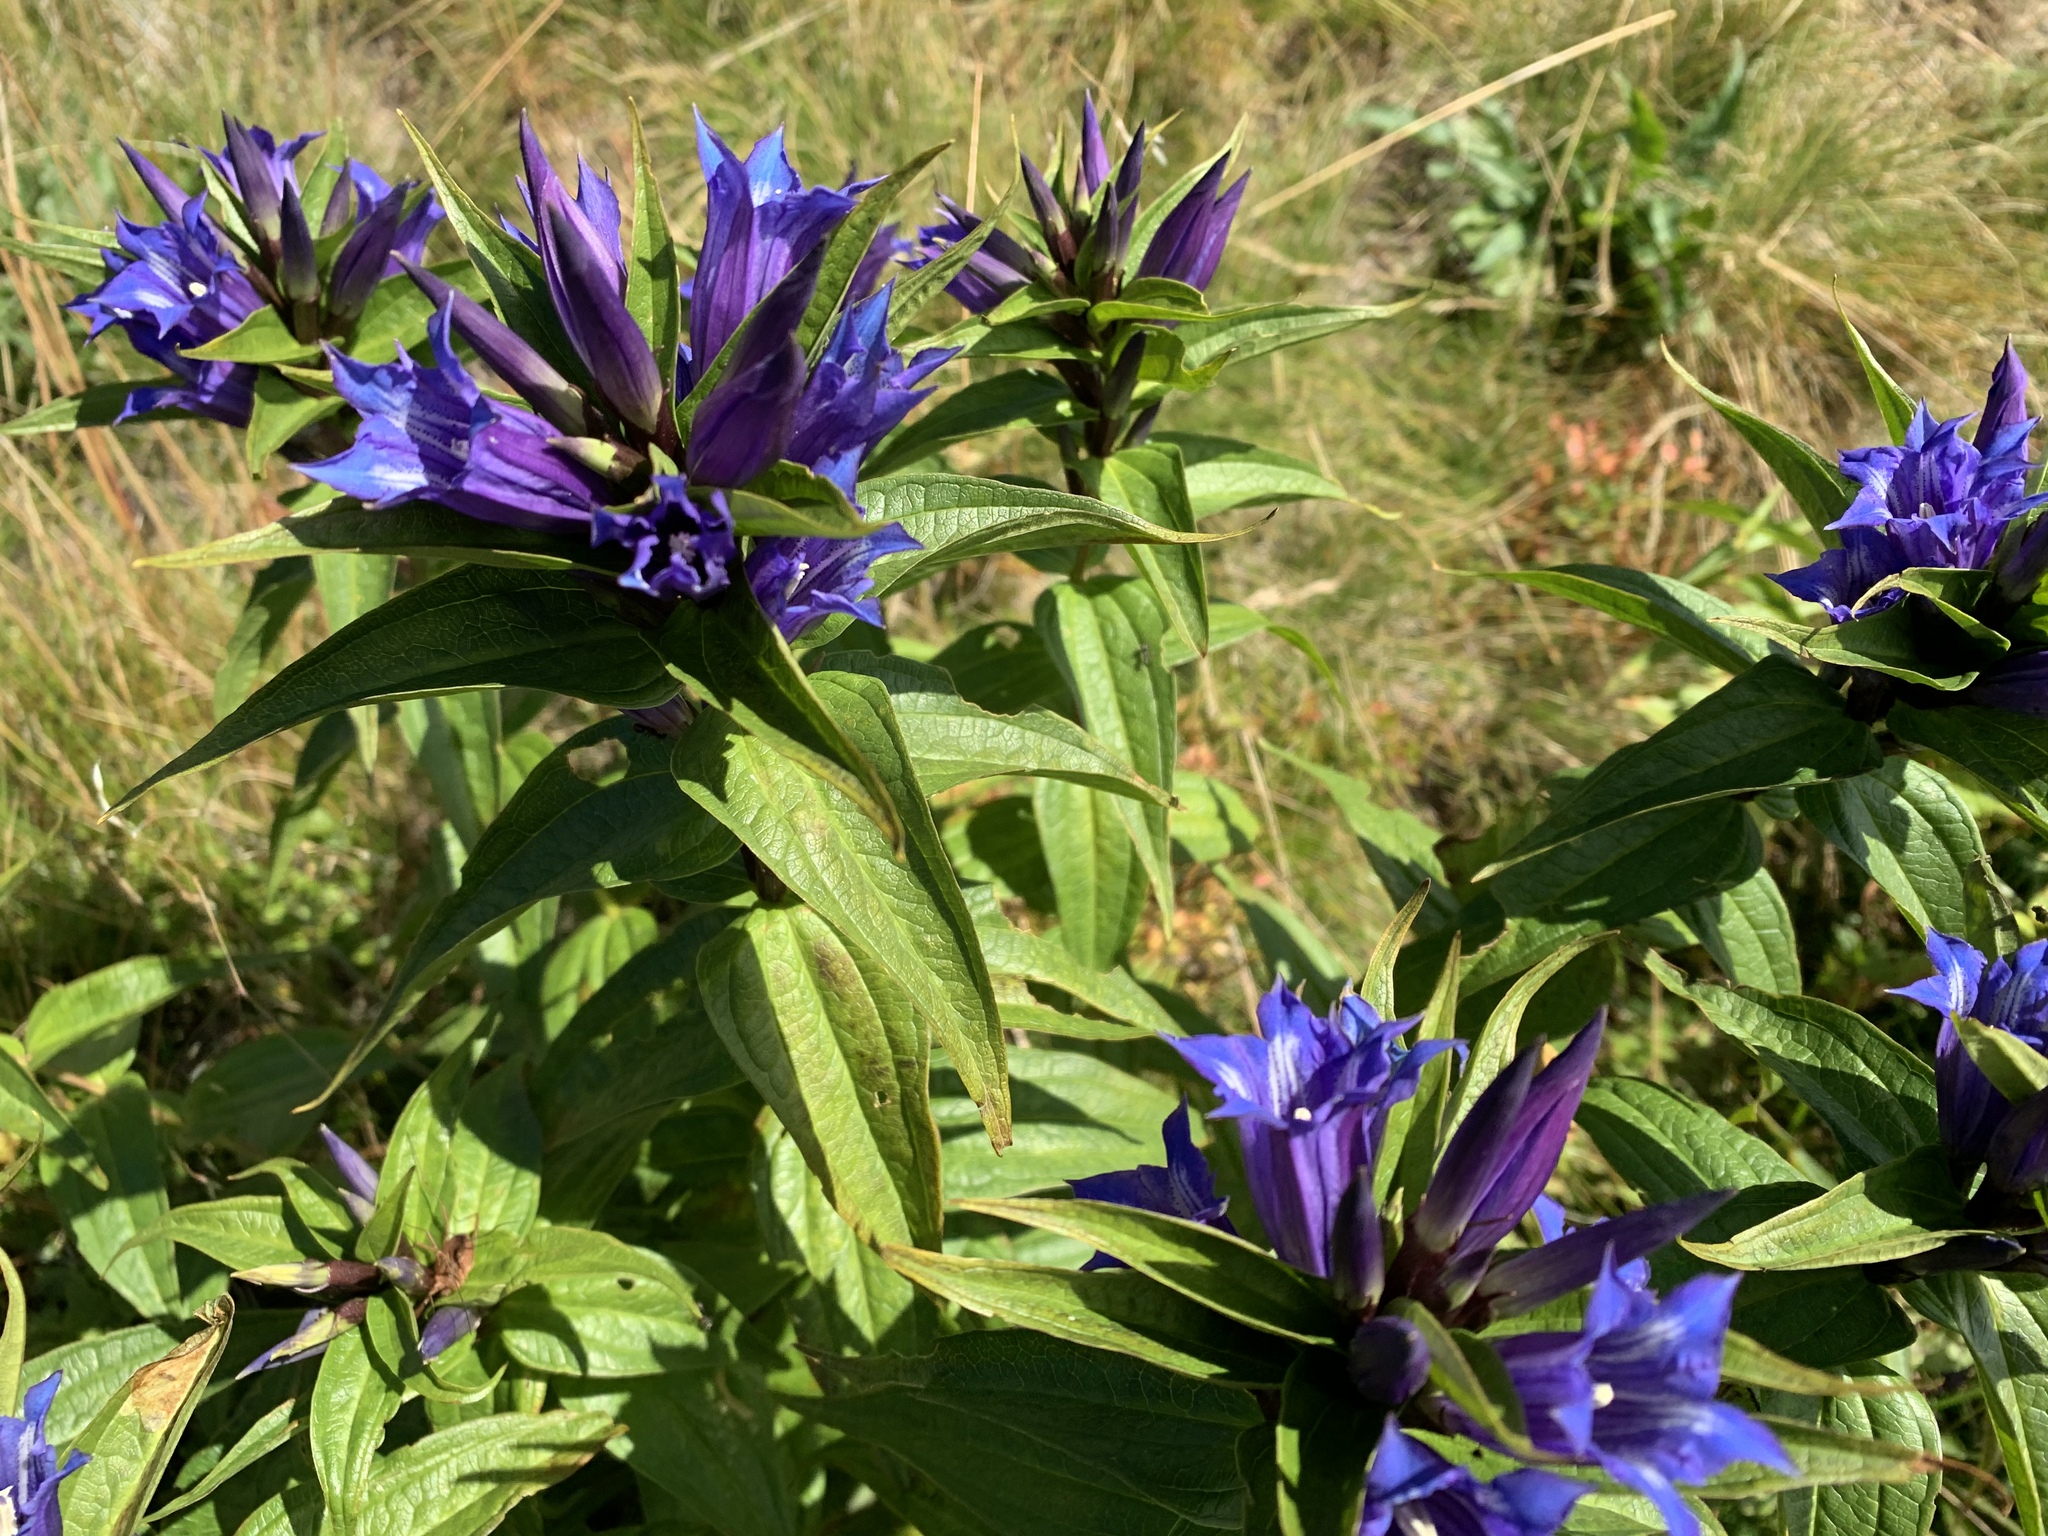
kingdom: Plantae
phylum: Tracheophyta
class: Magnoliopsida
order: Gentianales
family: Gentianaceae
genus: Gentiana
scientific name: Gentiana asclepiadea
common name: Willow gentian
